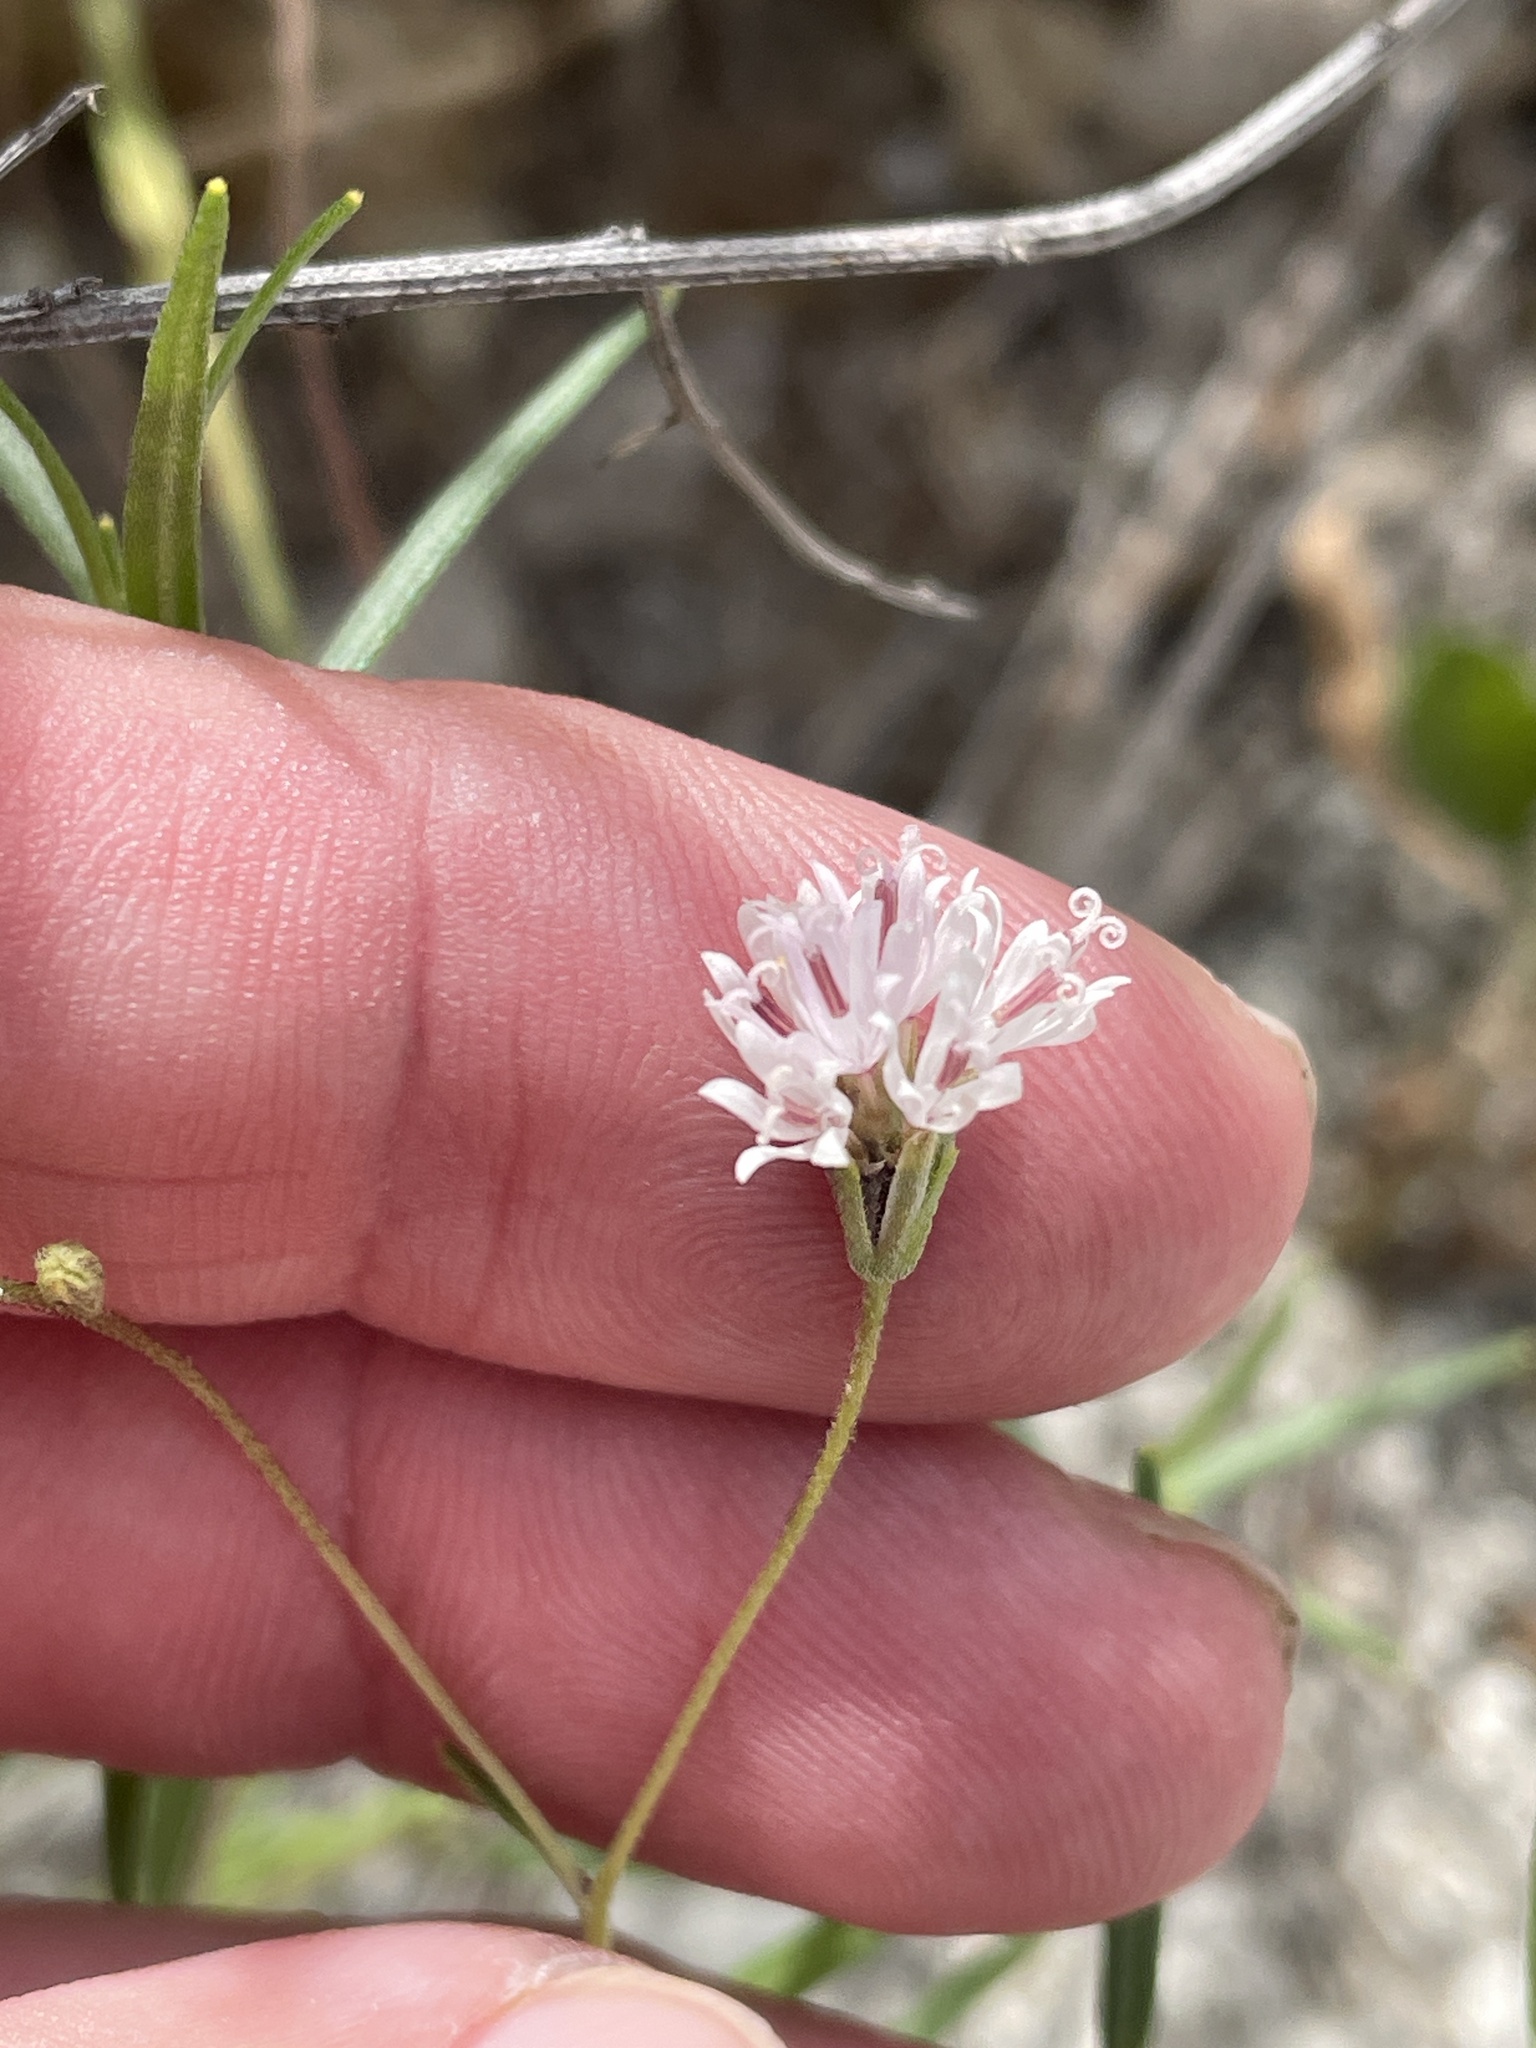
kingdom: Plantae
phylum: Tracheophyta
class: Magnoliopsida
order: Asterales
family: Asteraceae
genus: Palafoxia
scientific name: Palafoxia callosa
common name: Small palafox
